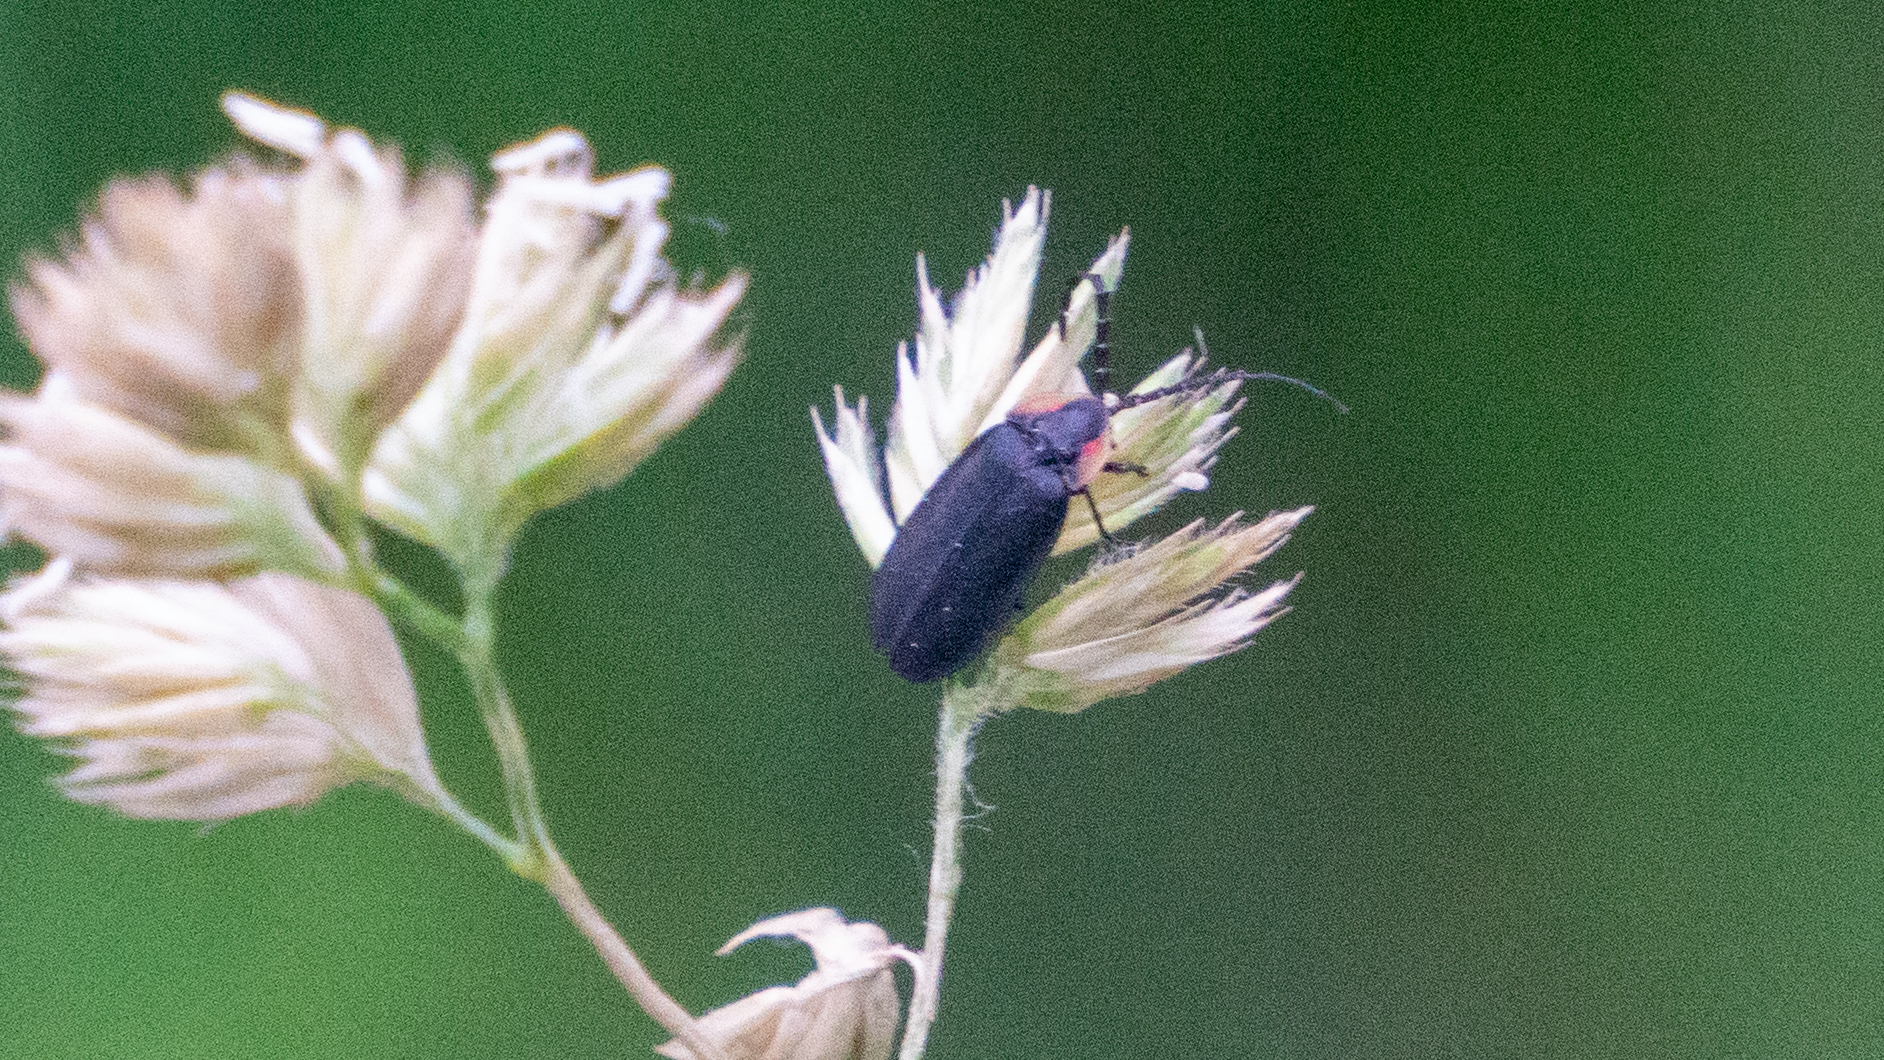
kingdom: Animalia
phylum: Arthropoda
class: Insecta
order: Coleoptera
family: Lampyridae
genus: Lucidota
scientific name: Lucidota atra
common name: Black firefly
